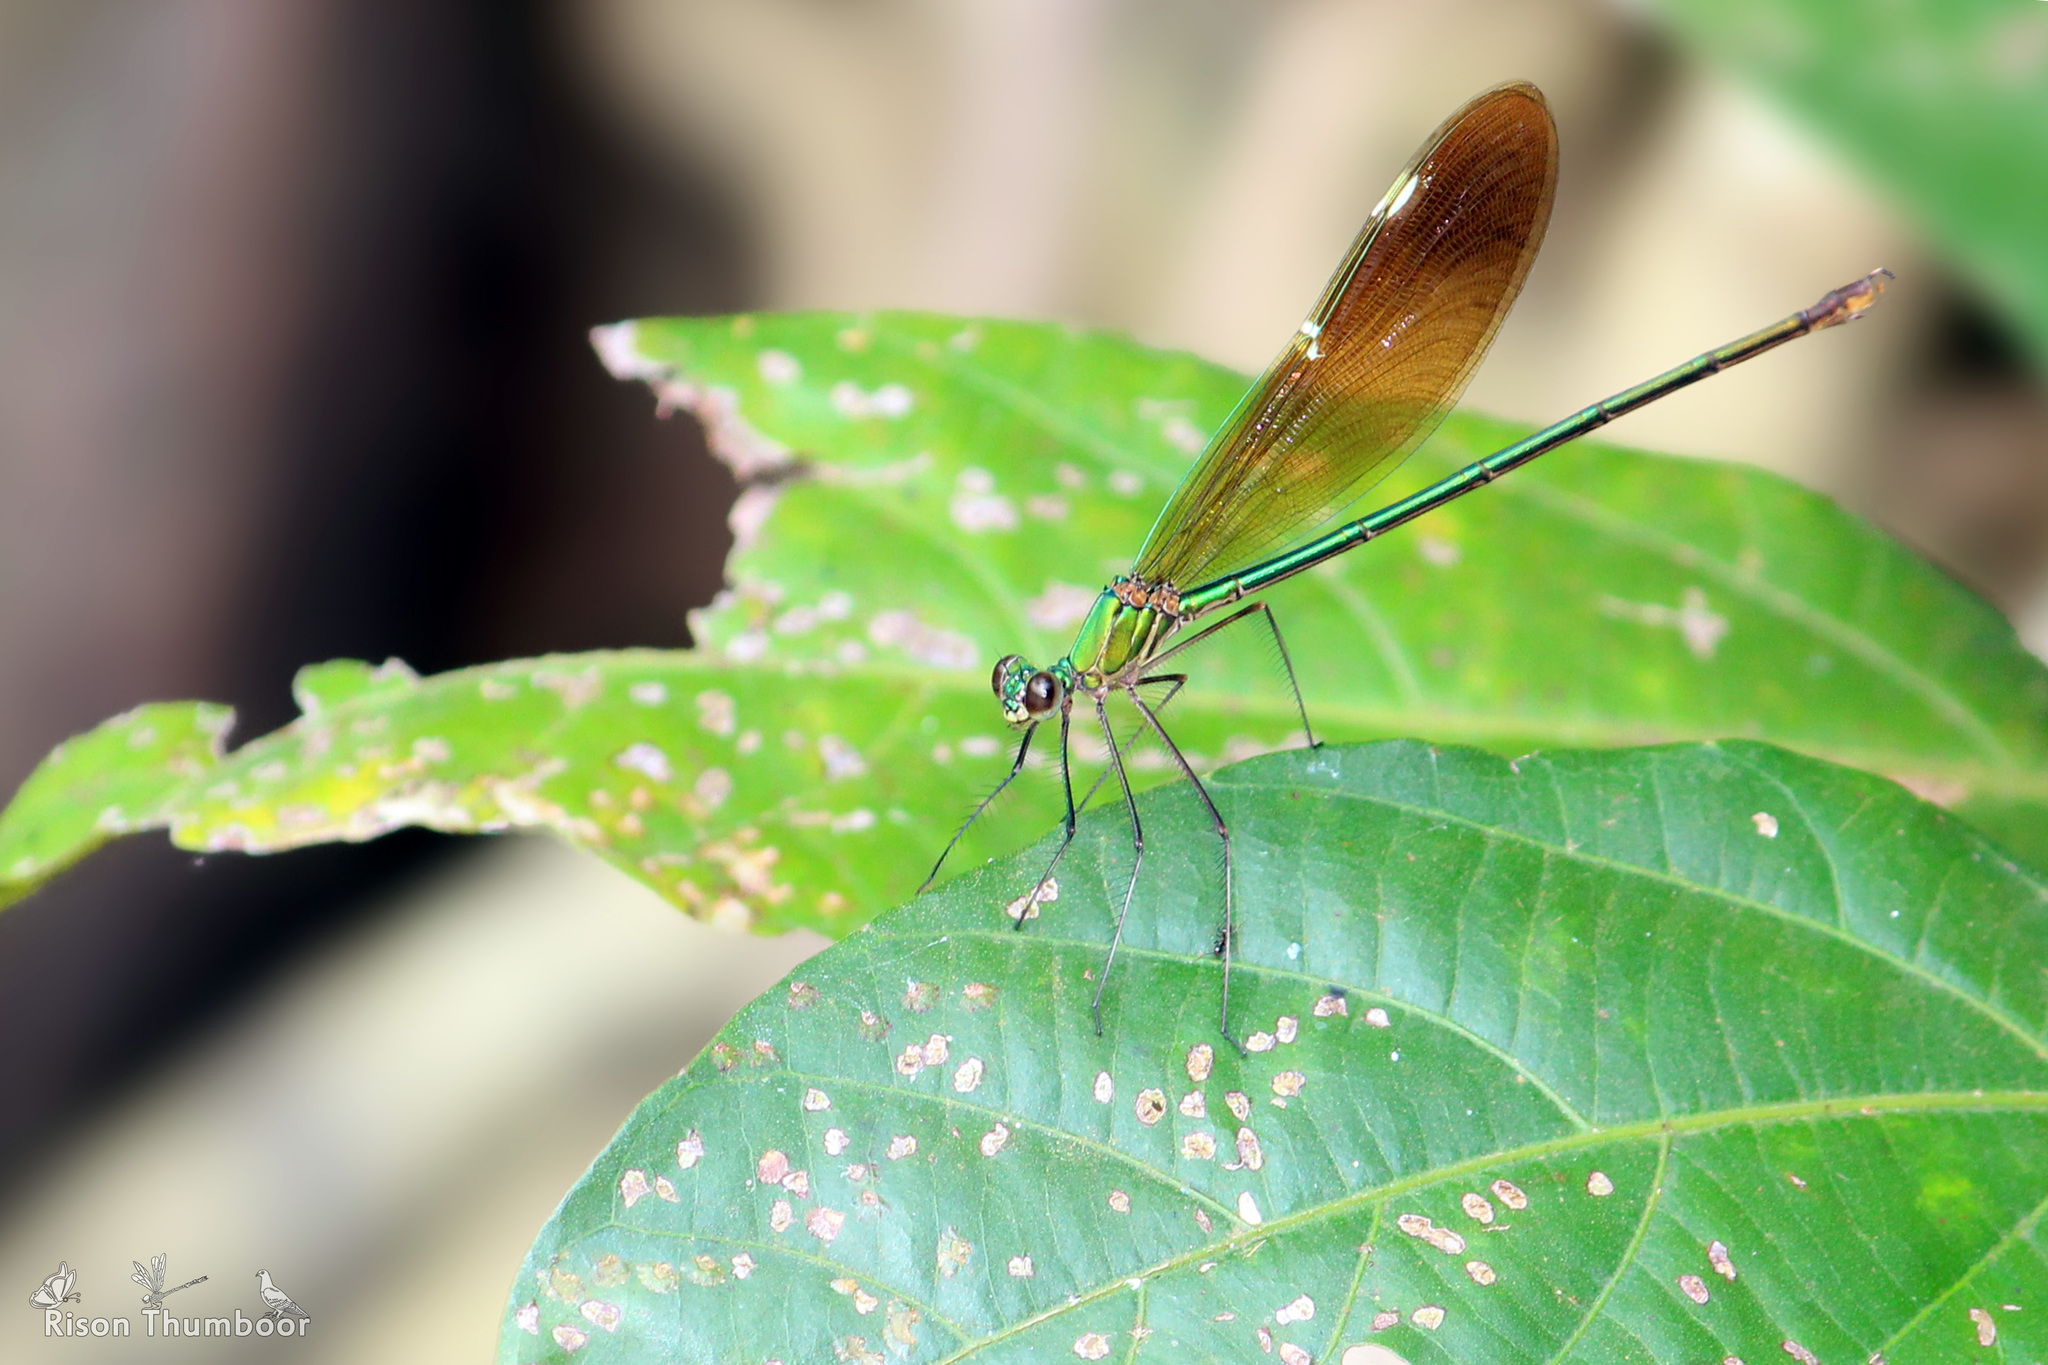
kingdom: Animalia
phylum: Arthropoda
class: Insecta
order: Odonata
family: Calopterygidae
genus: Neurobasis
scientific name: Neurobasis chinensis
